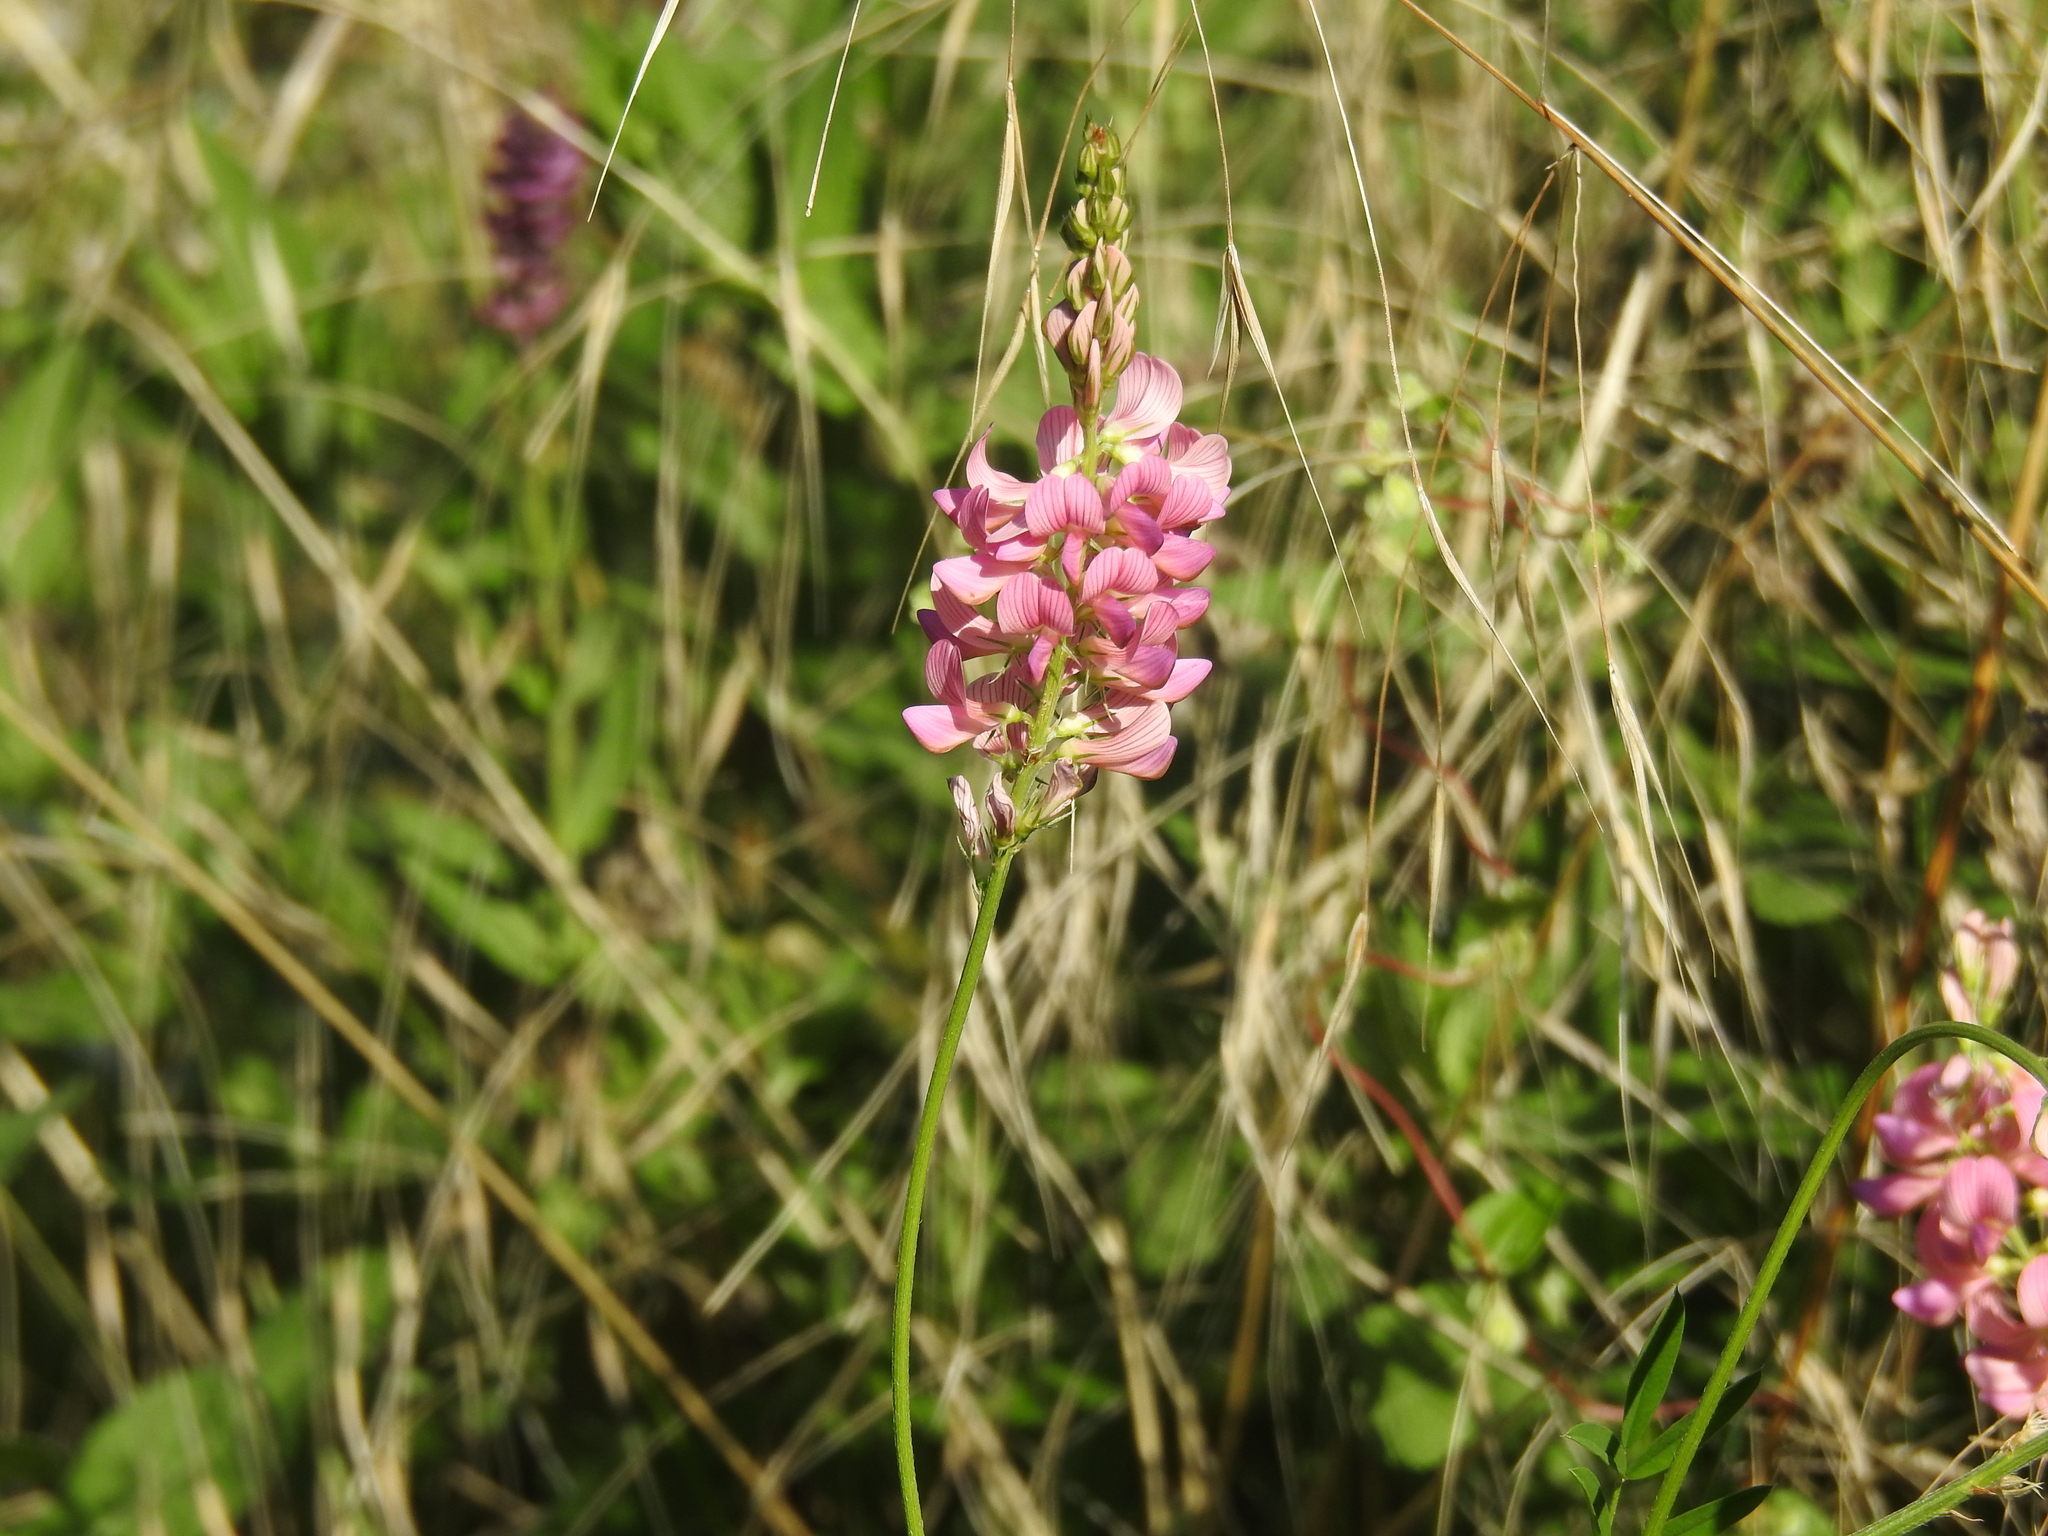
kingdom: Plantae
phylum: Tracheophyta
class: Magnoliopsida
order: Fabales
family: Fabaceae
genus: Onobrychis
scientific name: Onobrychis viciifolia
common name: Sainfoin
